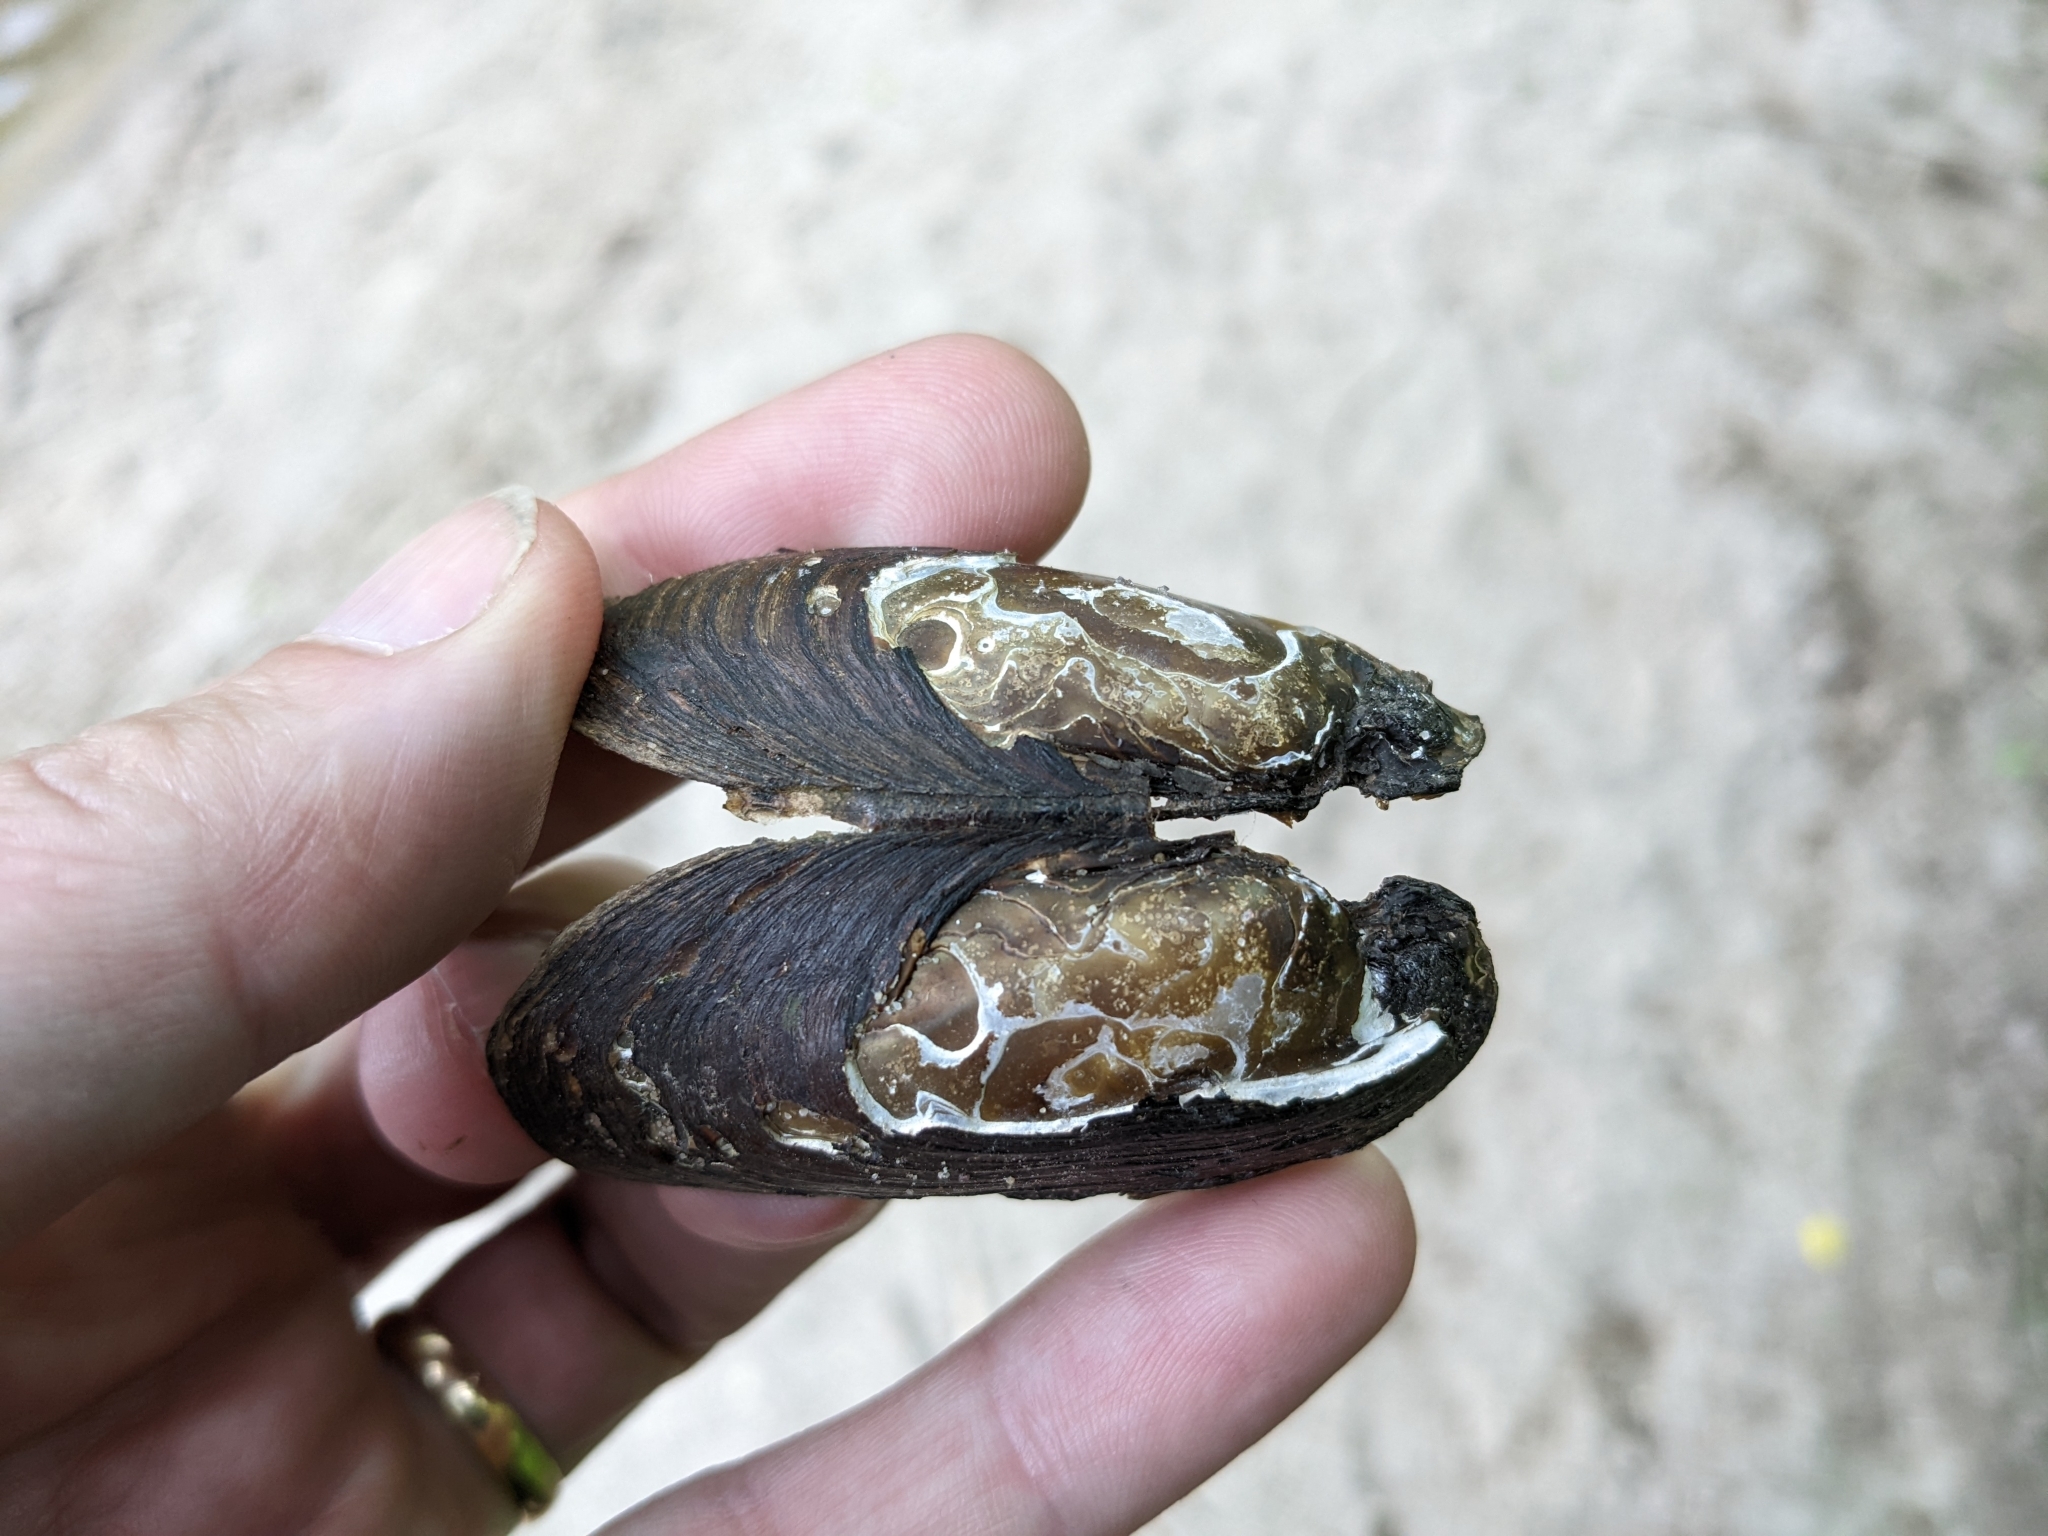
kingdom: Animalia
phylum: Mollusca
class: Bivalvia
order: Unionida
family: Unionidae
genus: Elliptio
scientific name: Elliptio complanata
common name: Eastern elliptio
